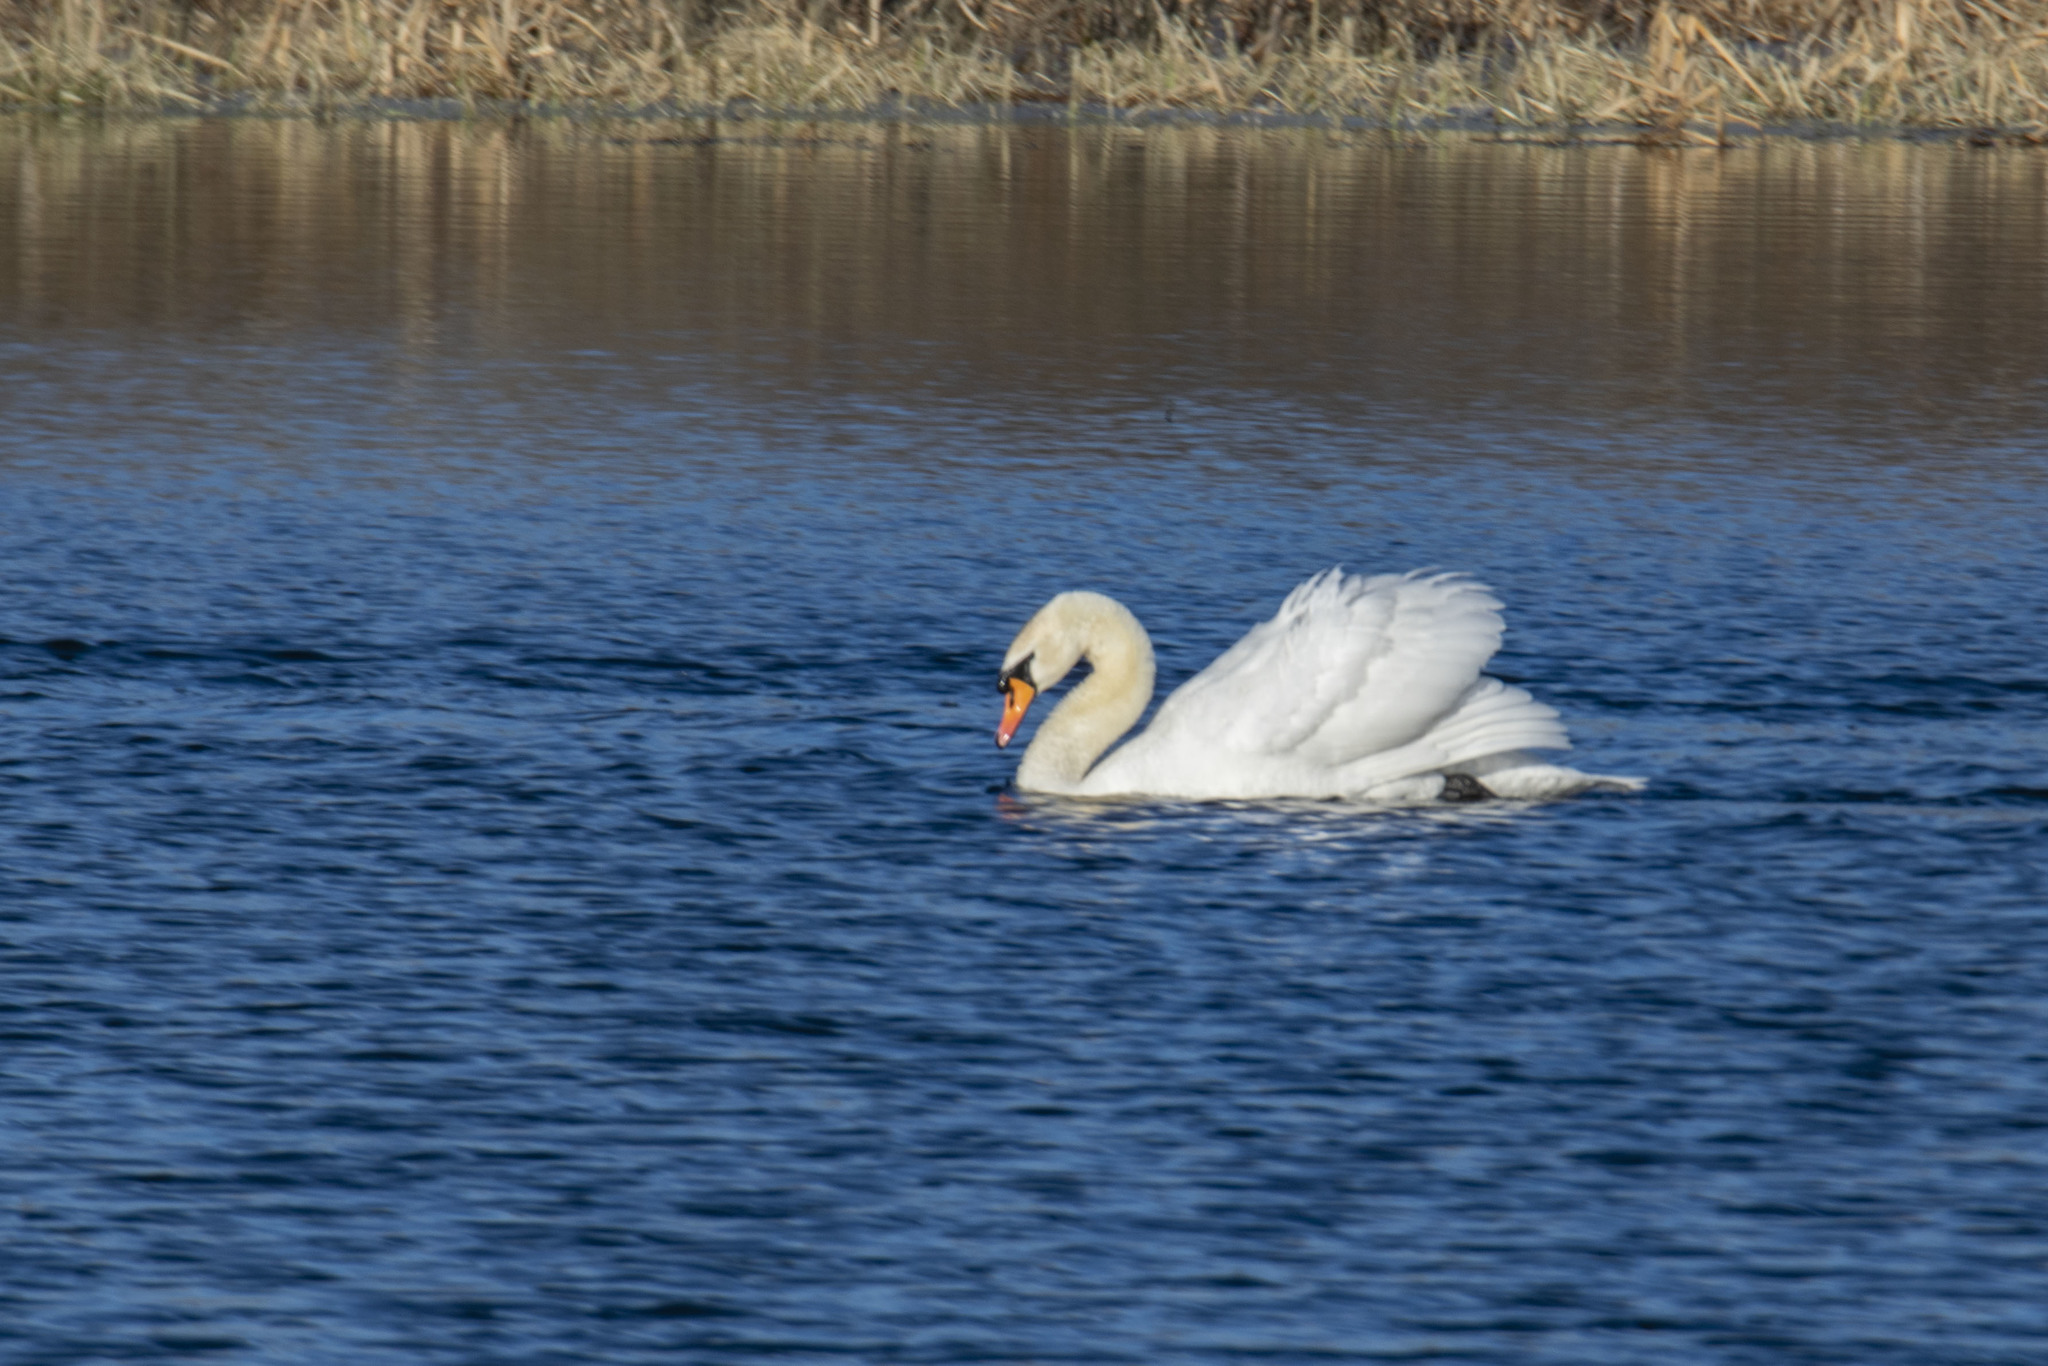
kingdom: Animalia
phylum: Chordata
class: Aves
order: Anseriformes
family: Anatidae
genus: Cygnus
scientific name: Cygnus olor
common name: Mute swan
